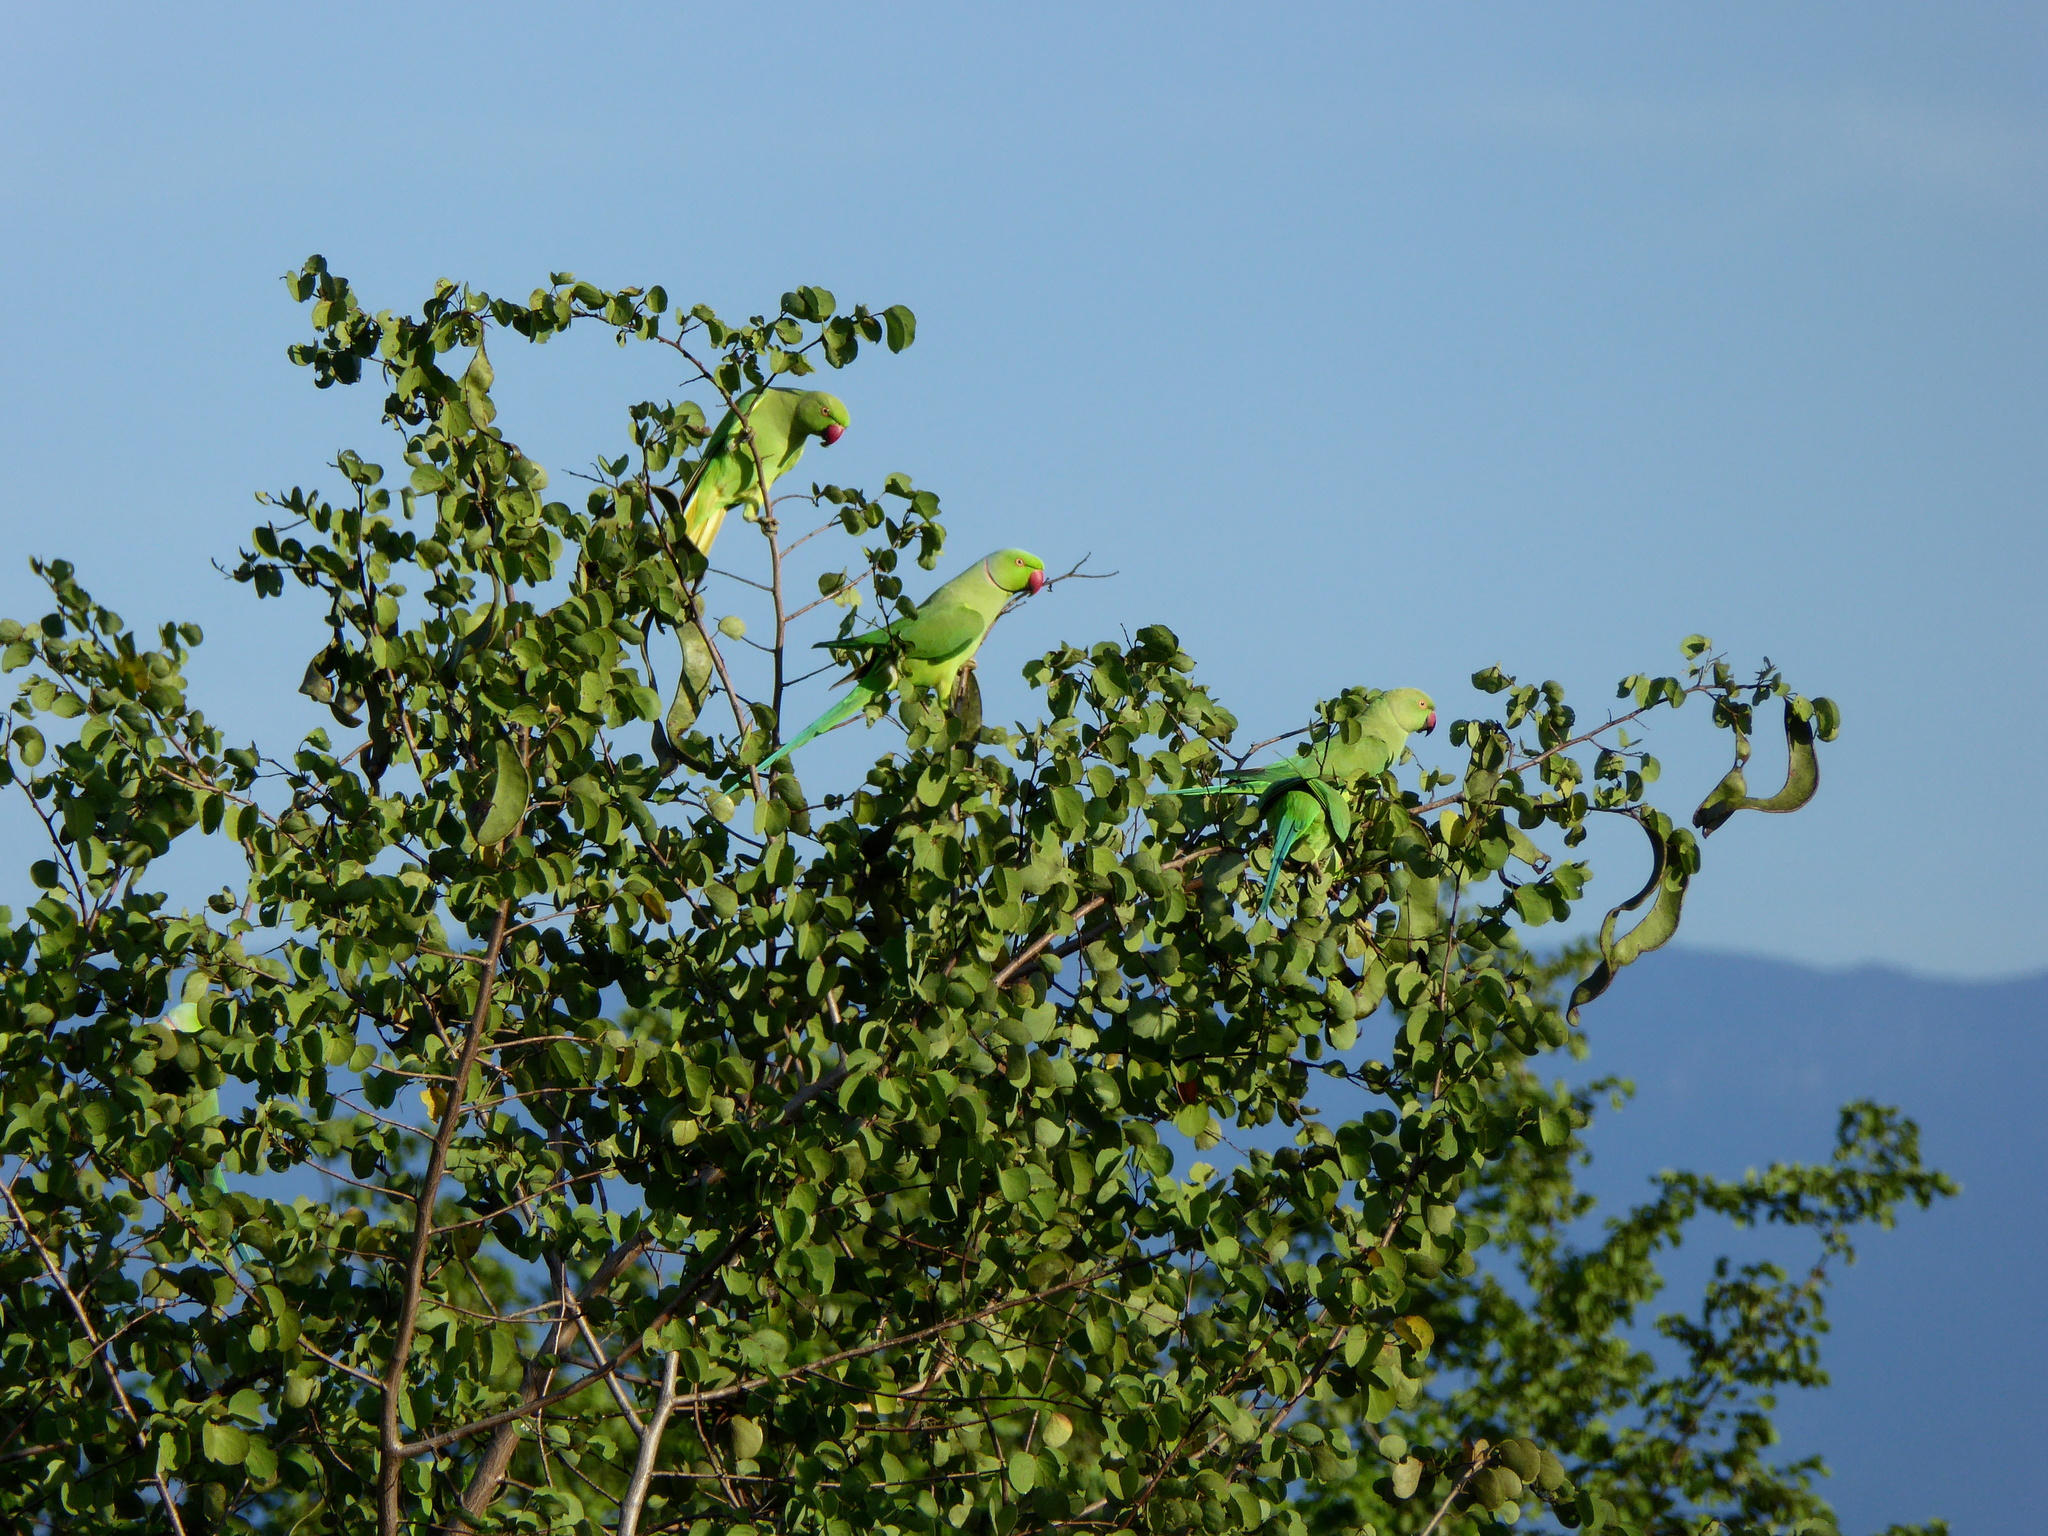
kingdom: Animalia
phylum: Chordata
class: Aves
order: Psittaciformes
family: Psittacidae
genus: Psittacula
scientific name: Psittacula krameri
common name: Rose-ringed parakeet
